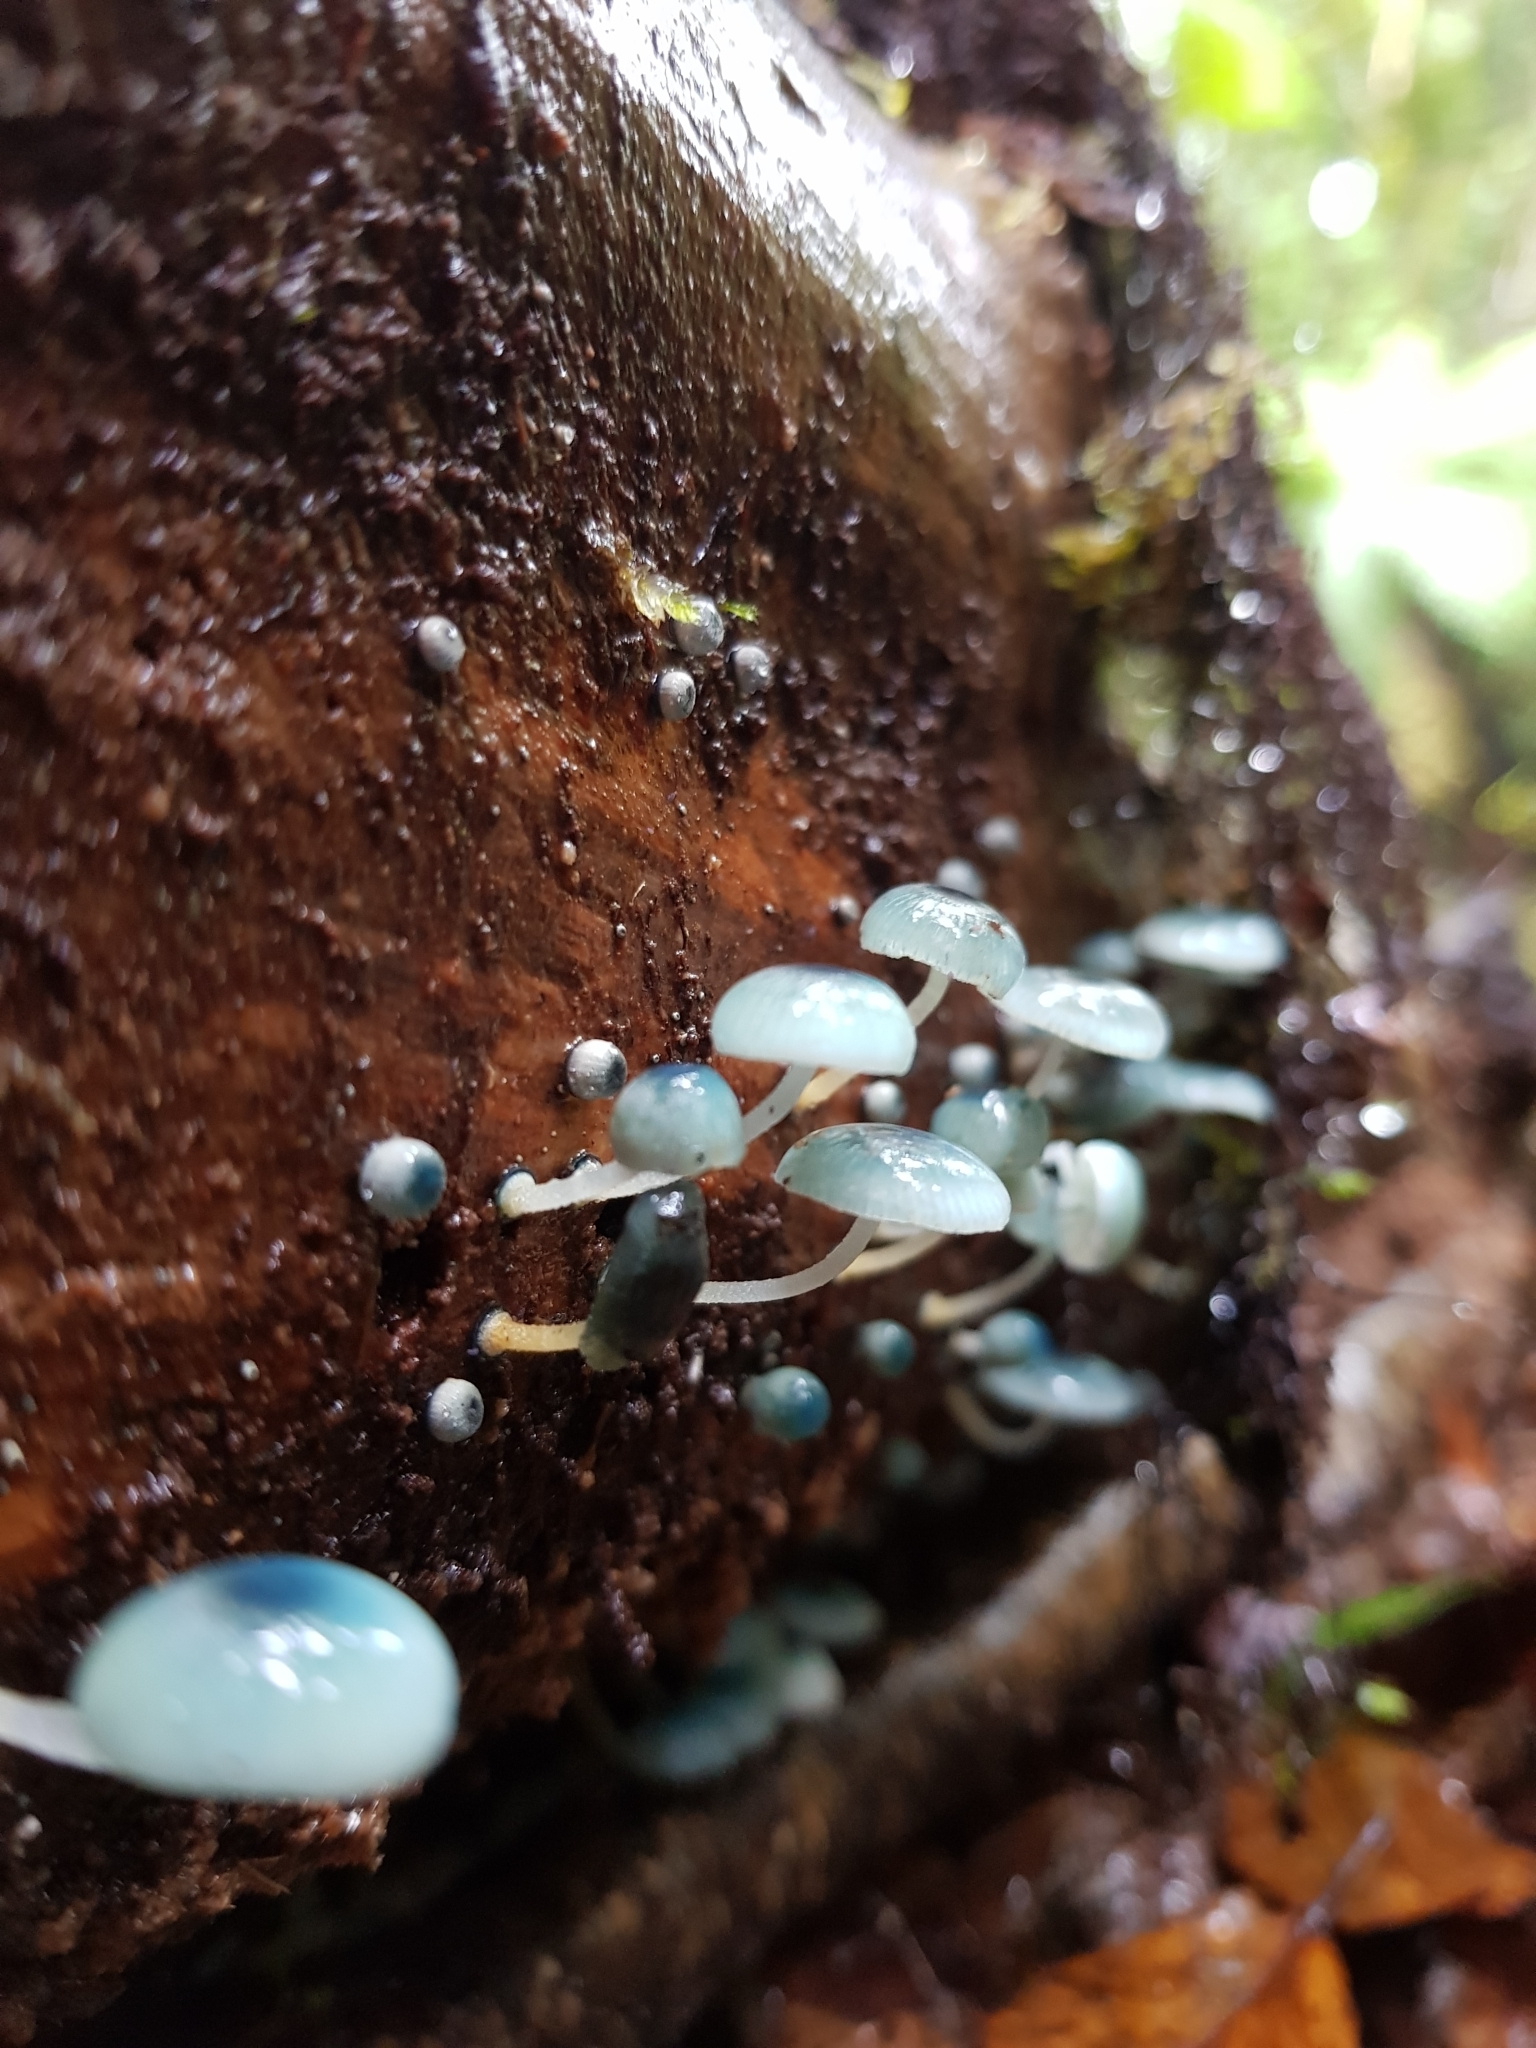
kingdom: Fungi
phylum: Basidiomycota
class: Agaricomycetes
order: Agaricales
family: Mycenaceae
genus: Mycena
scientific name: Mycena interrupta
